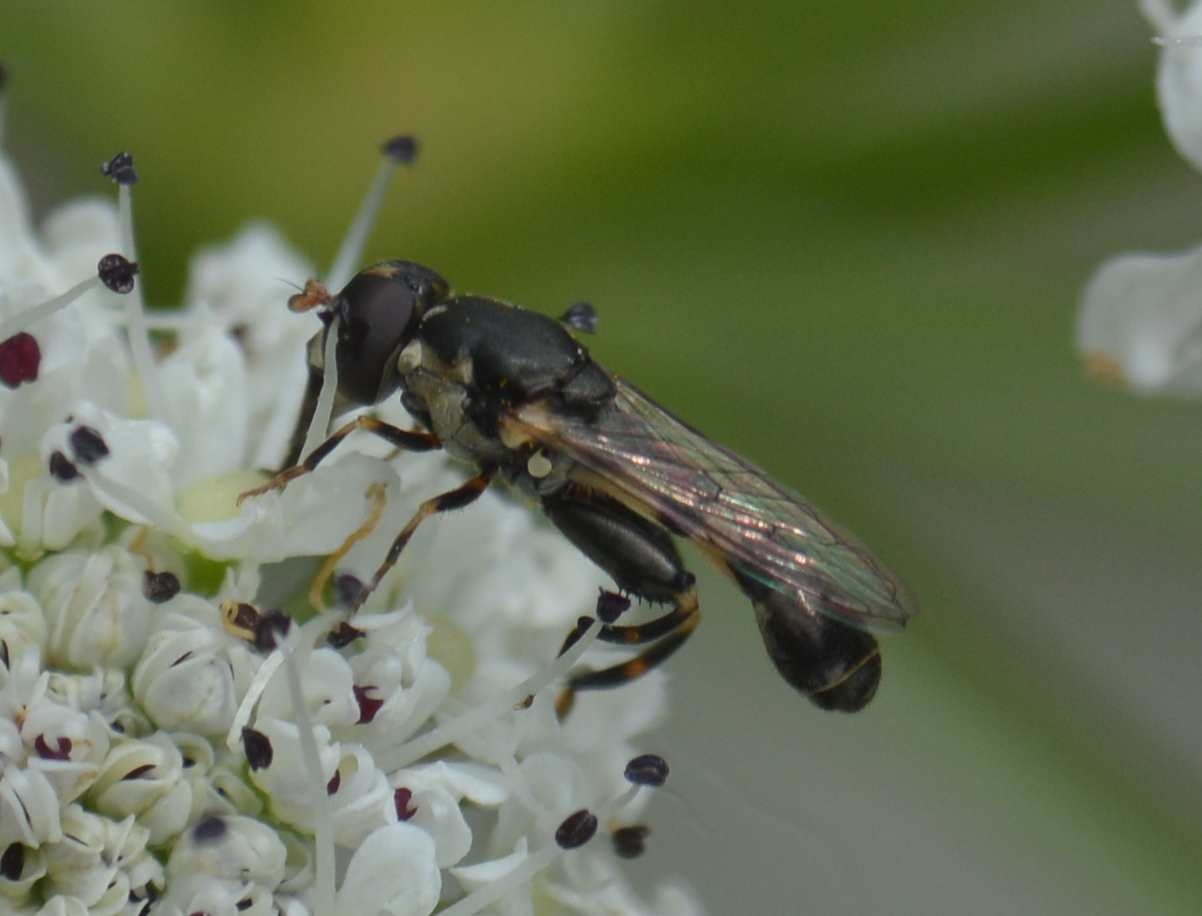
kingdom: Animalia
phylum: Arthropoda
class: Insecta
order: Diptera
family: Syrphidae
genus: Syritta
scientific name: Syritta pipiens
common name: Hover fly
